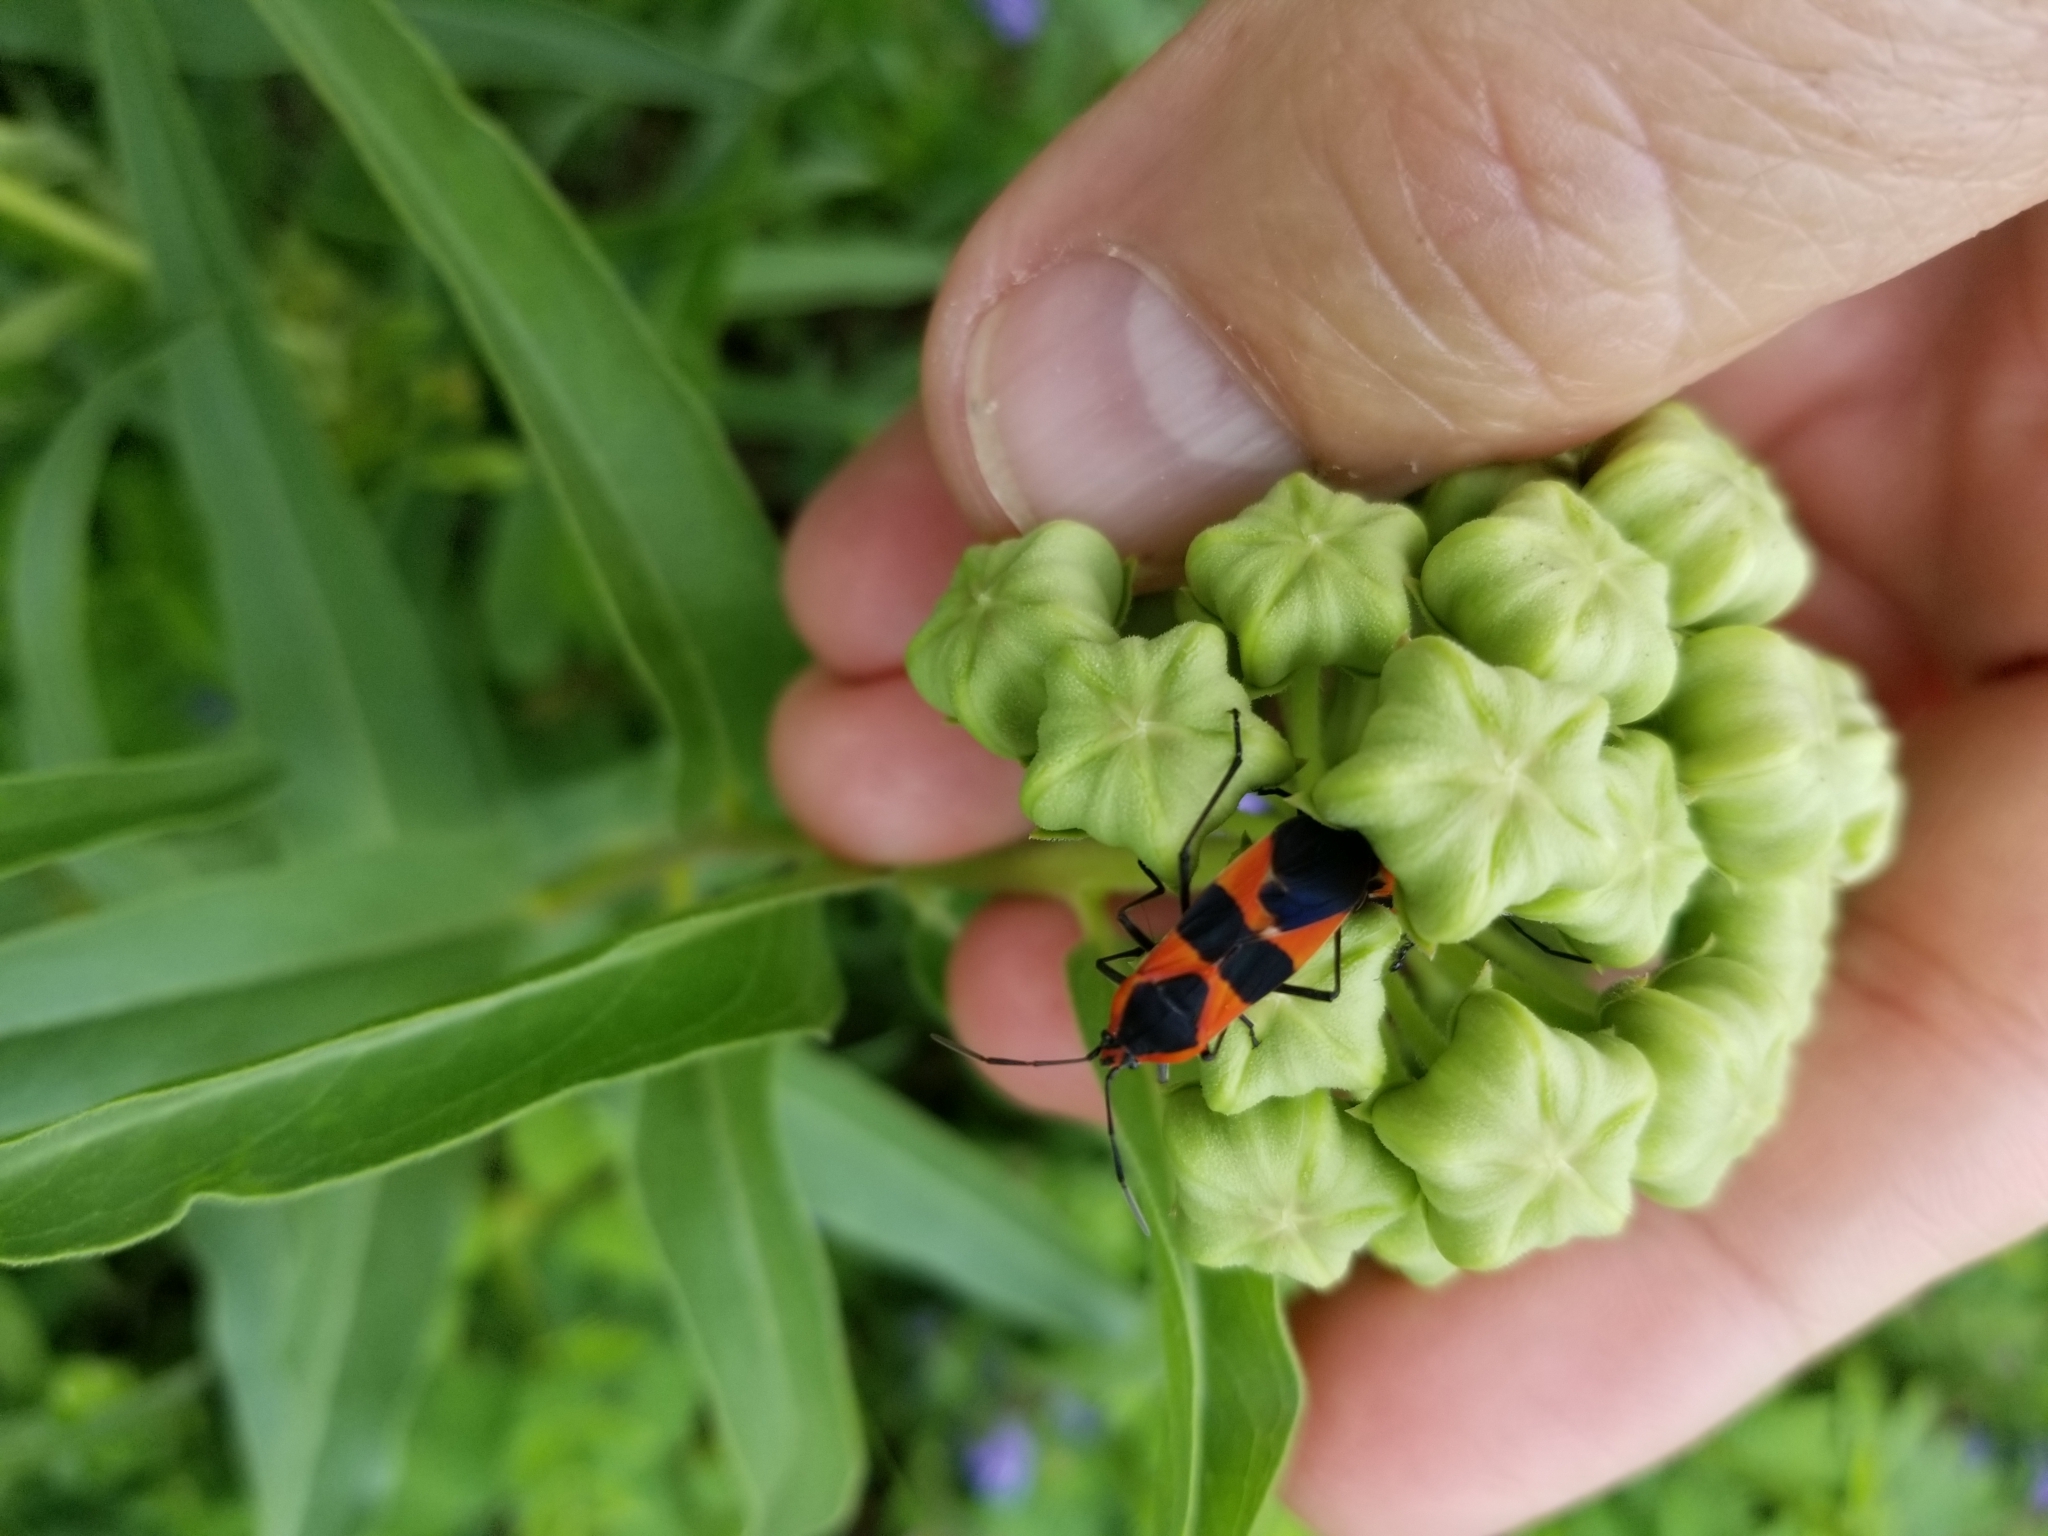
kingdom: Animalia
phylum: Arthropoda
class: Insecta
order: Hemiptera
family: Lygaeidae
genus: Oncopeltus
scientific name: Oncopeltus fasciatus
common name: Large milkweed bug
